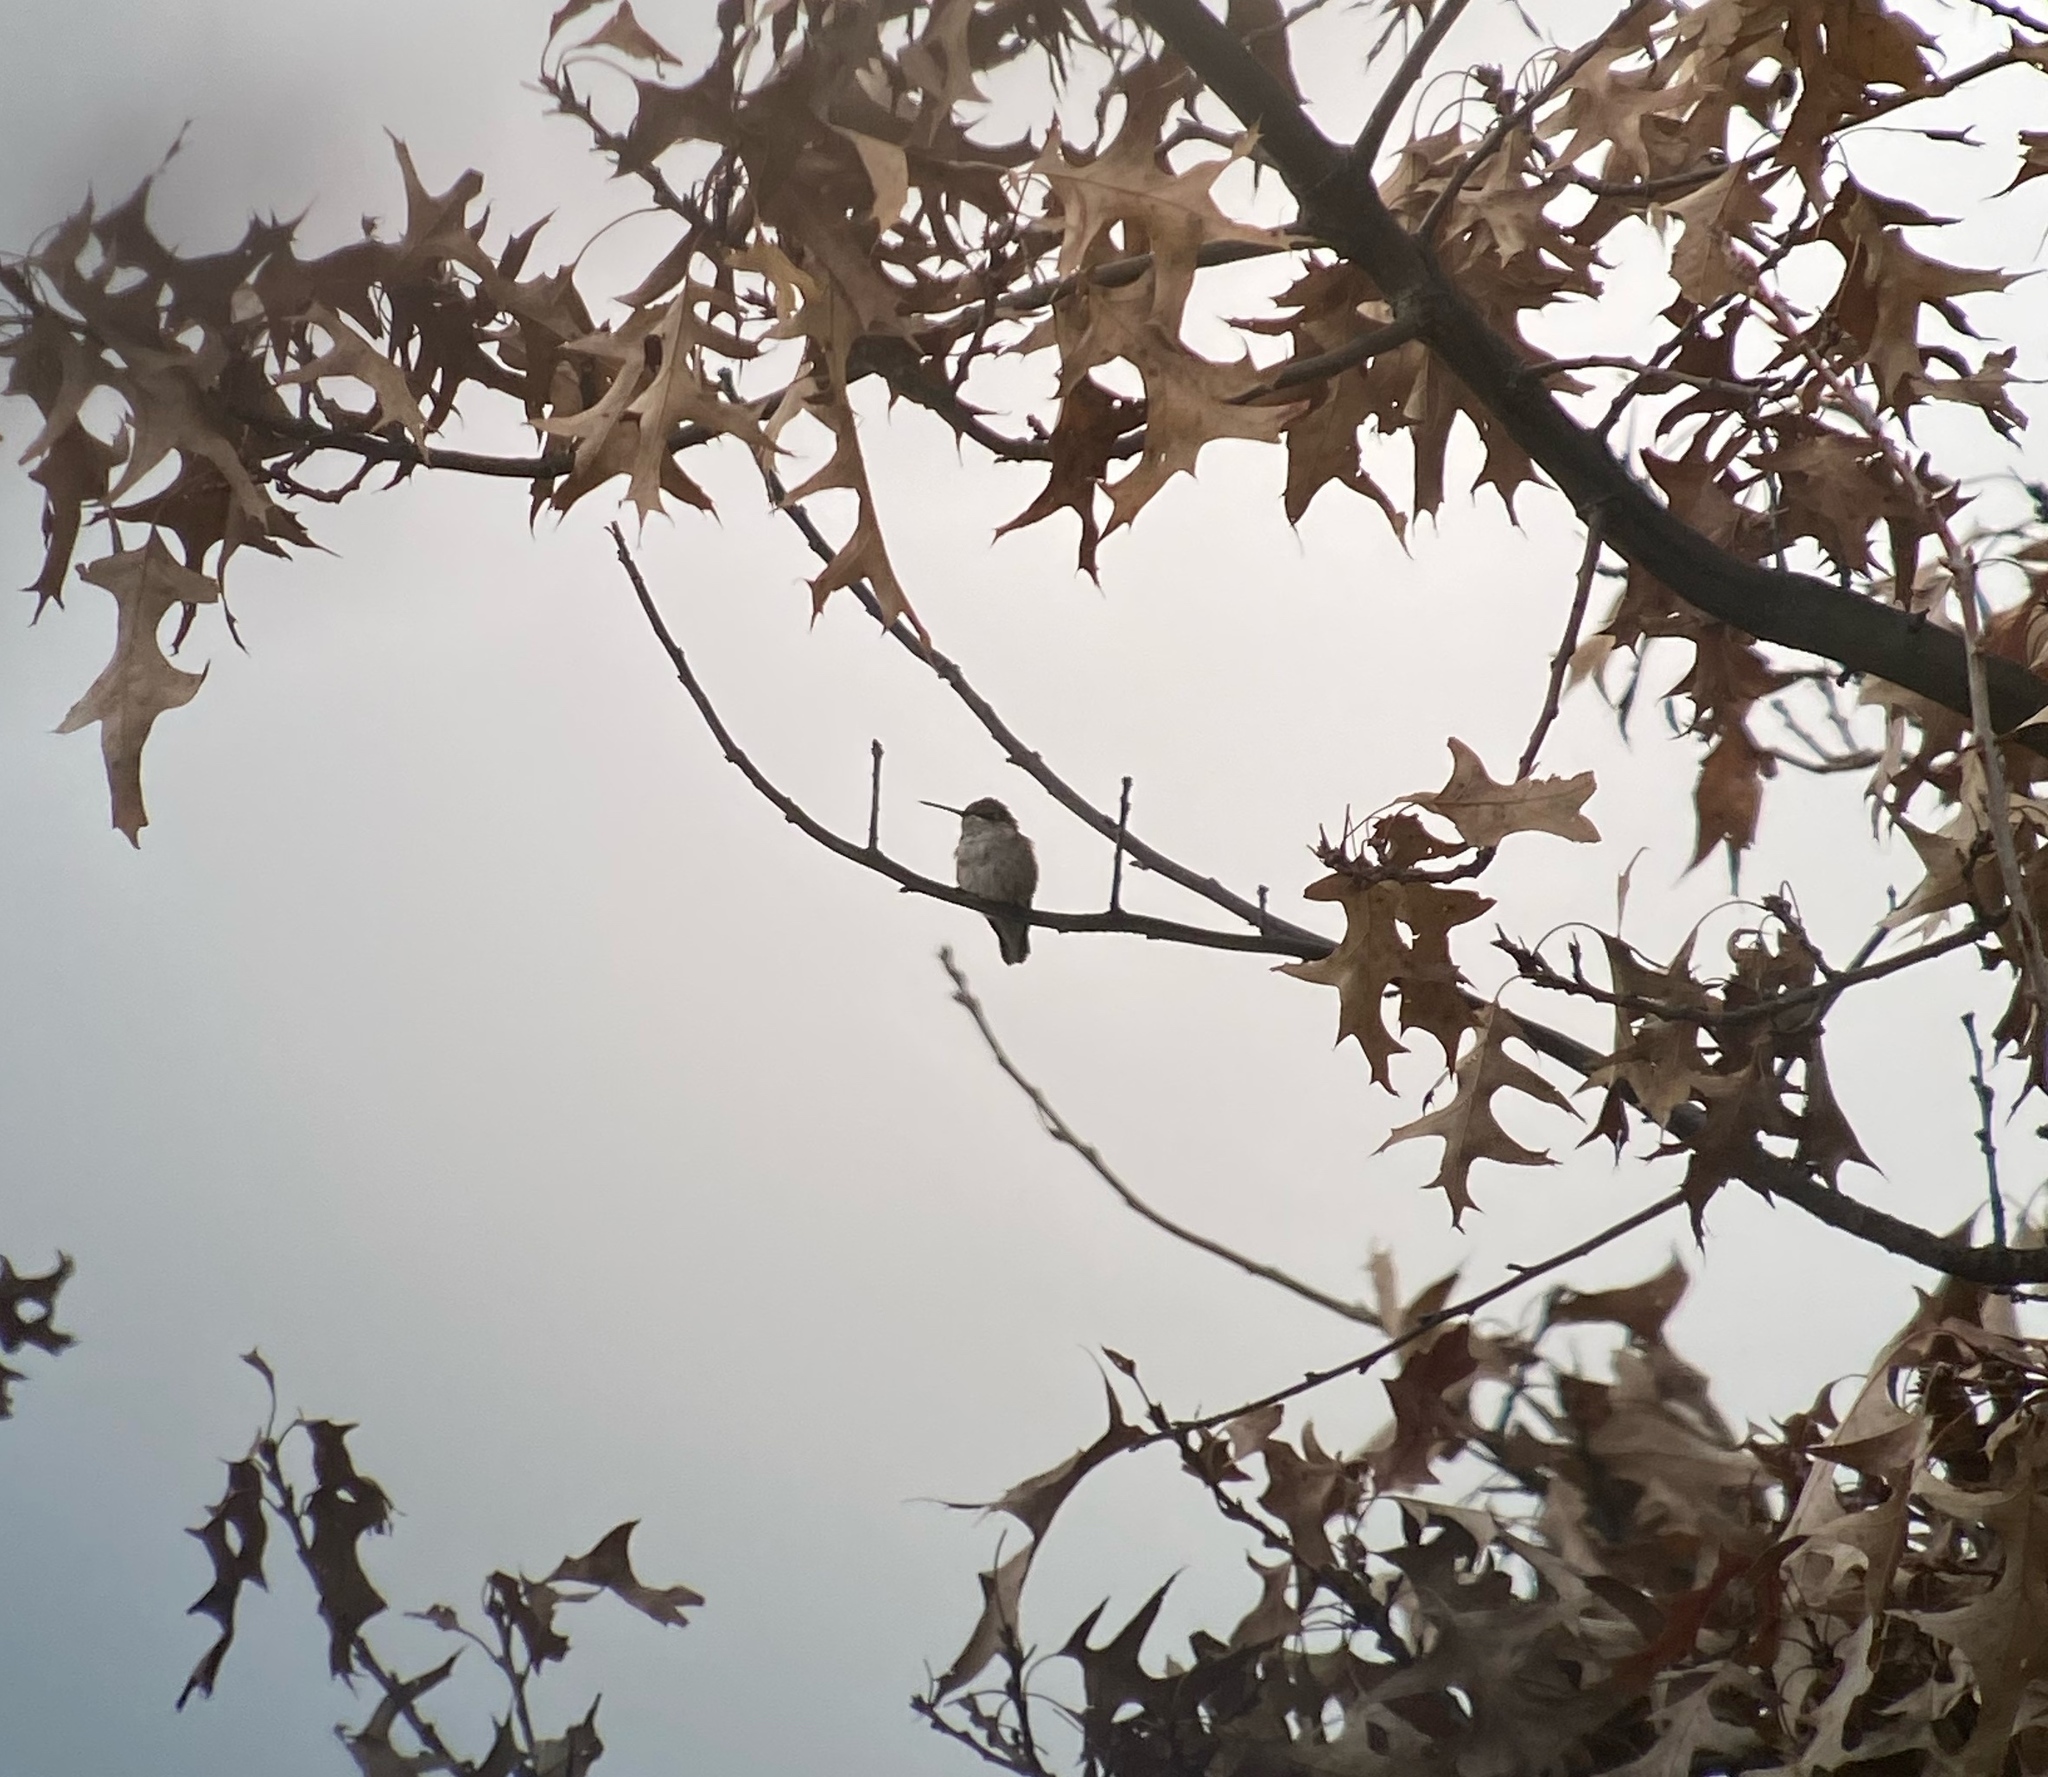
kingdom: Animalia
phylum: Chordata
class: Aves
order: Apodiformes
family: Trochilidae
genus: Archilochus
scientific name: Archilochus alexandri
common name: Black-chinned hummingbird
